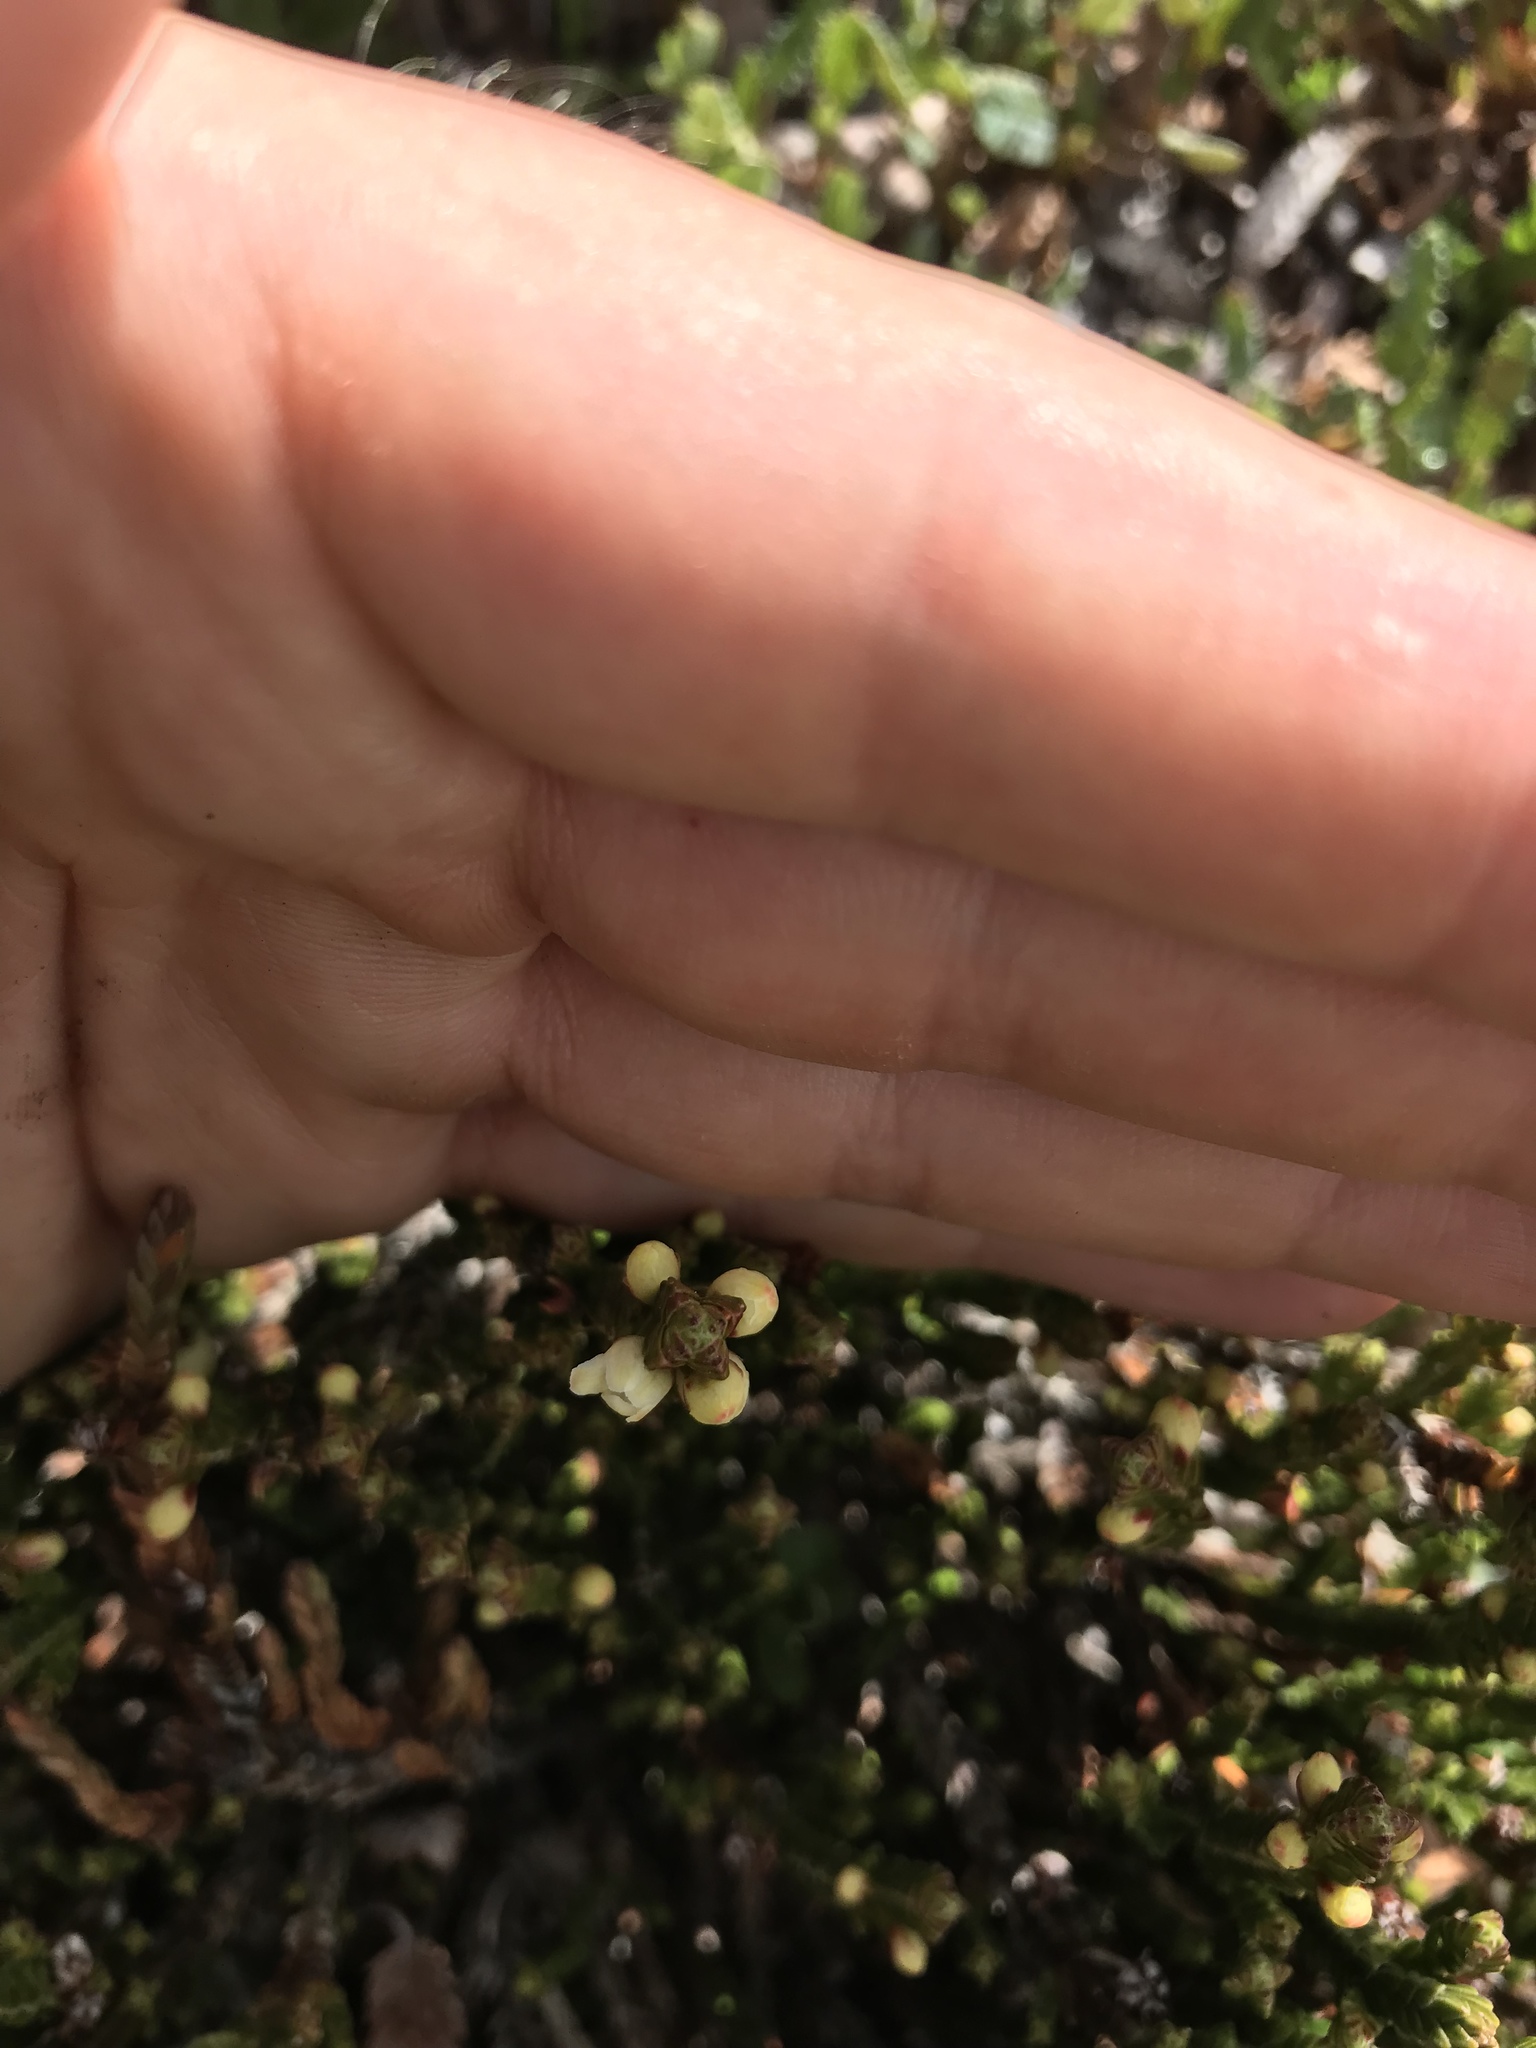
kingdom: Plantae
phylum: Tracheophyta
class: Magnoliopsida
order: Ericales
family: Ericaceae
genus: Cassiope
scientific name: Cassiope tetragona
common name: Arctic bell heather
